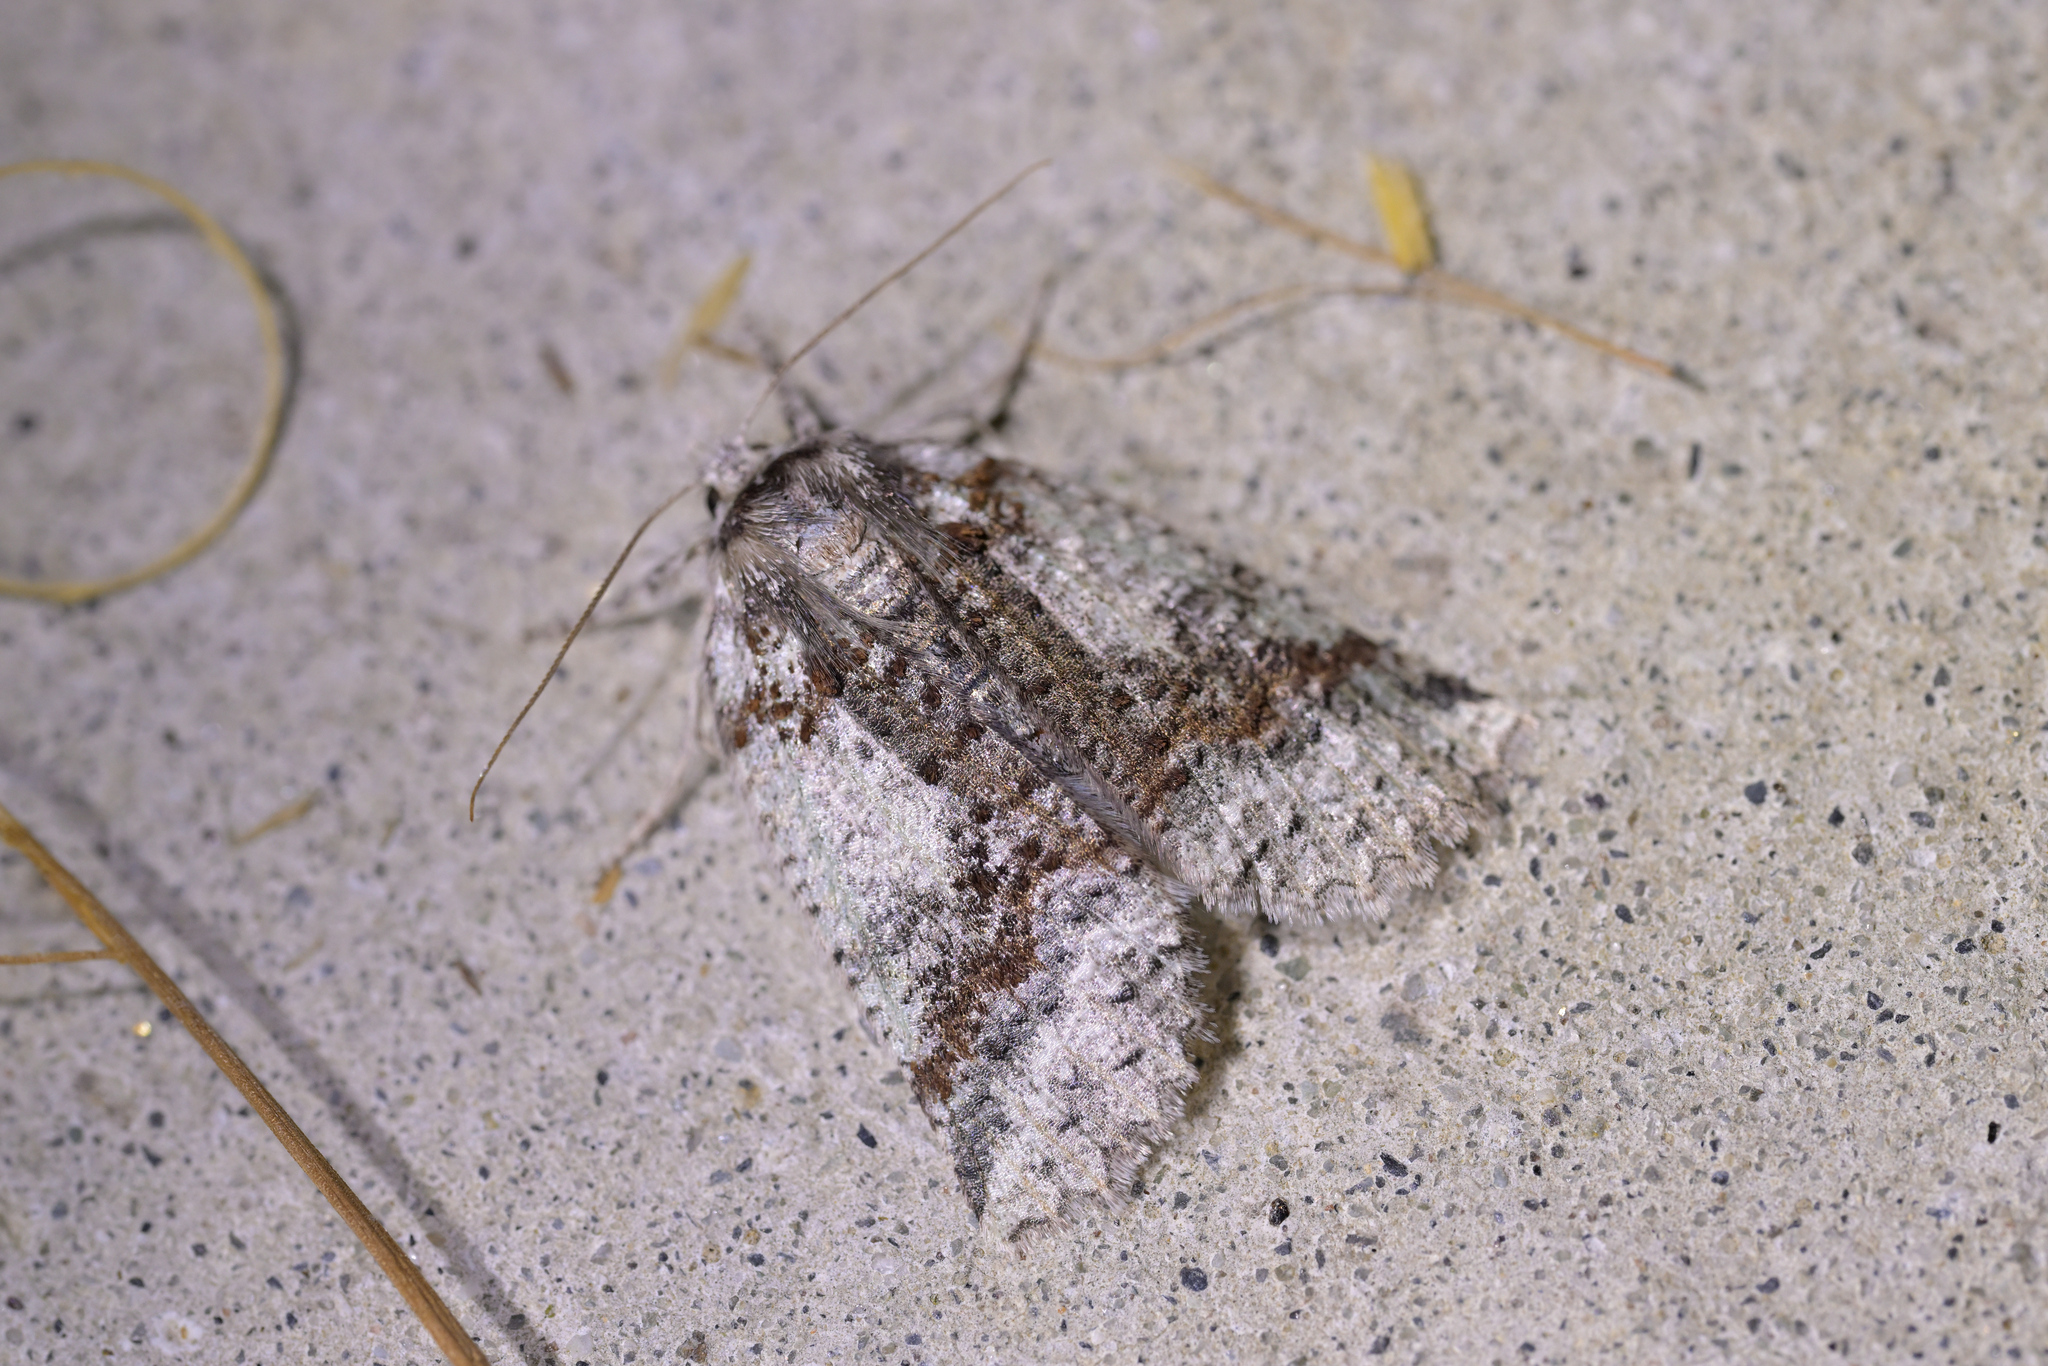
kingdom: Animalia
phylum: Arthropoda
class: Insecta
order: Lepidoptera
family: Geometridae
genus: Declana
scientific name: Declana floccosa
